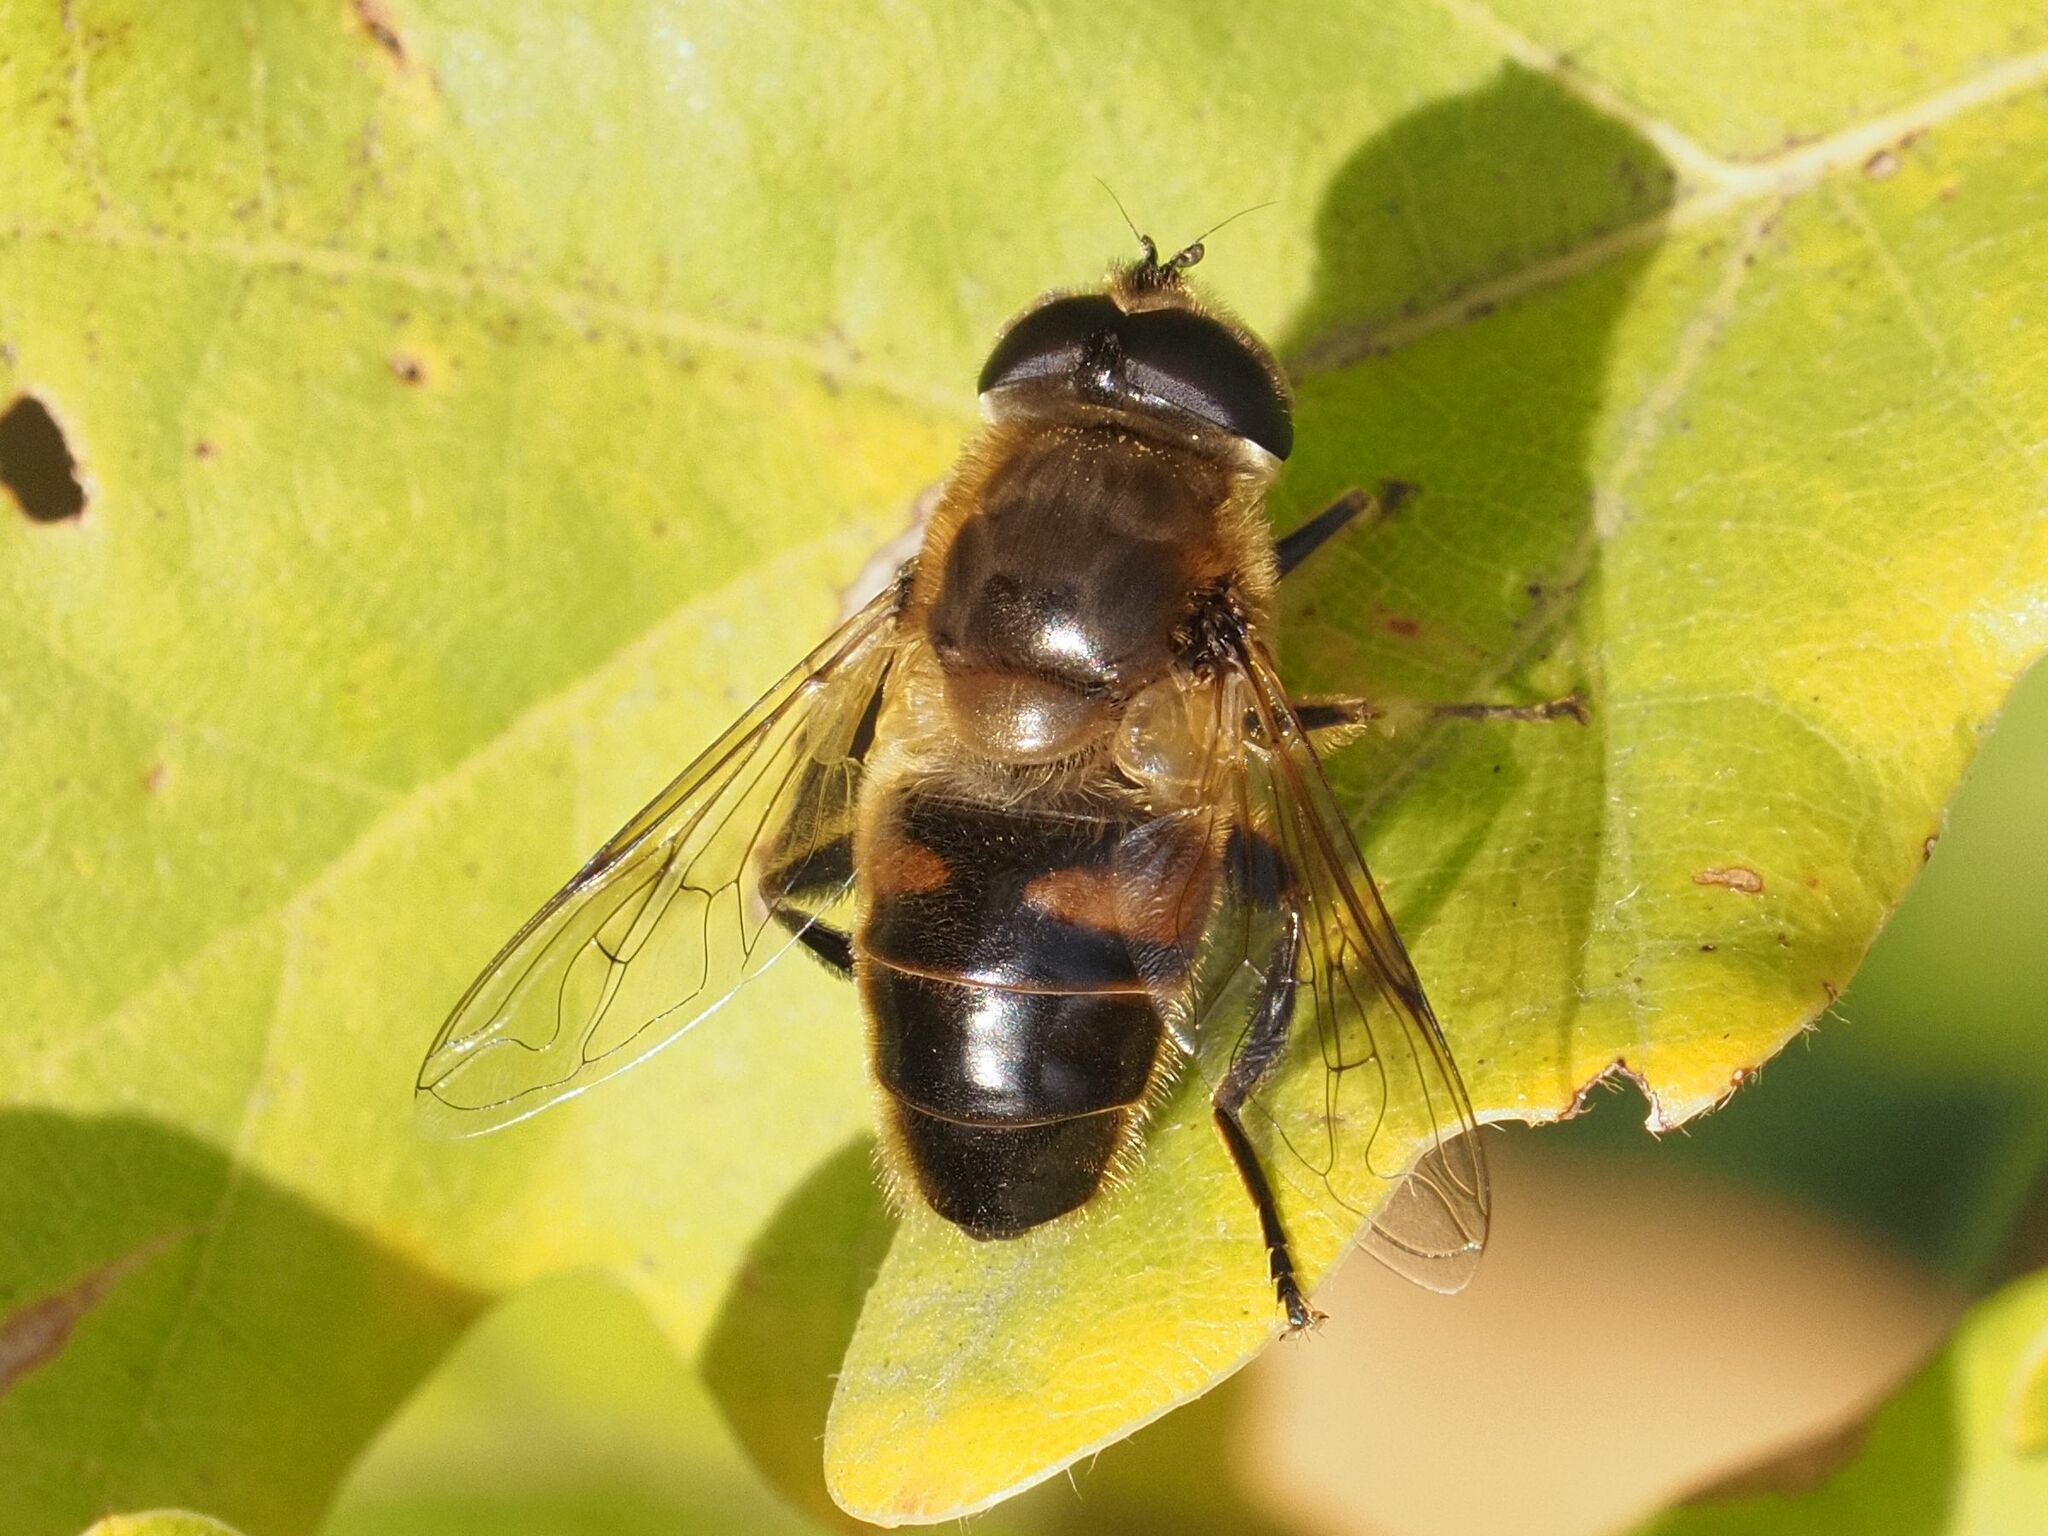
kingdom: Animalia
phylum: Arthropoda
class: Insecta
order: Diptera
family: Syrphidae
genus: Eristalis
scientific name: Eristalis tenax
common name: Drone fly
